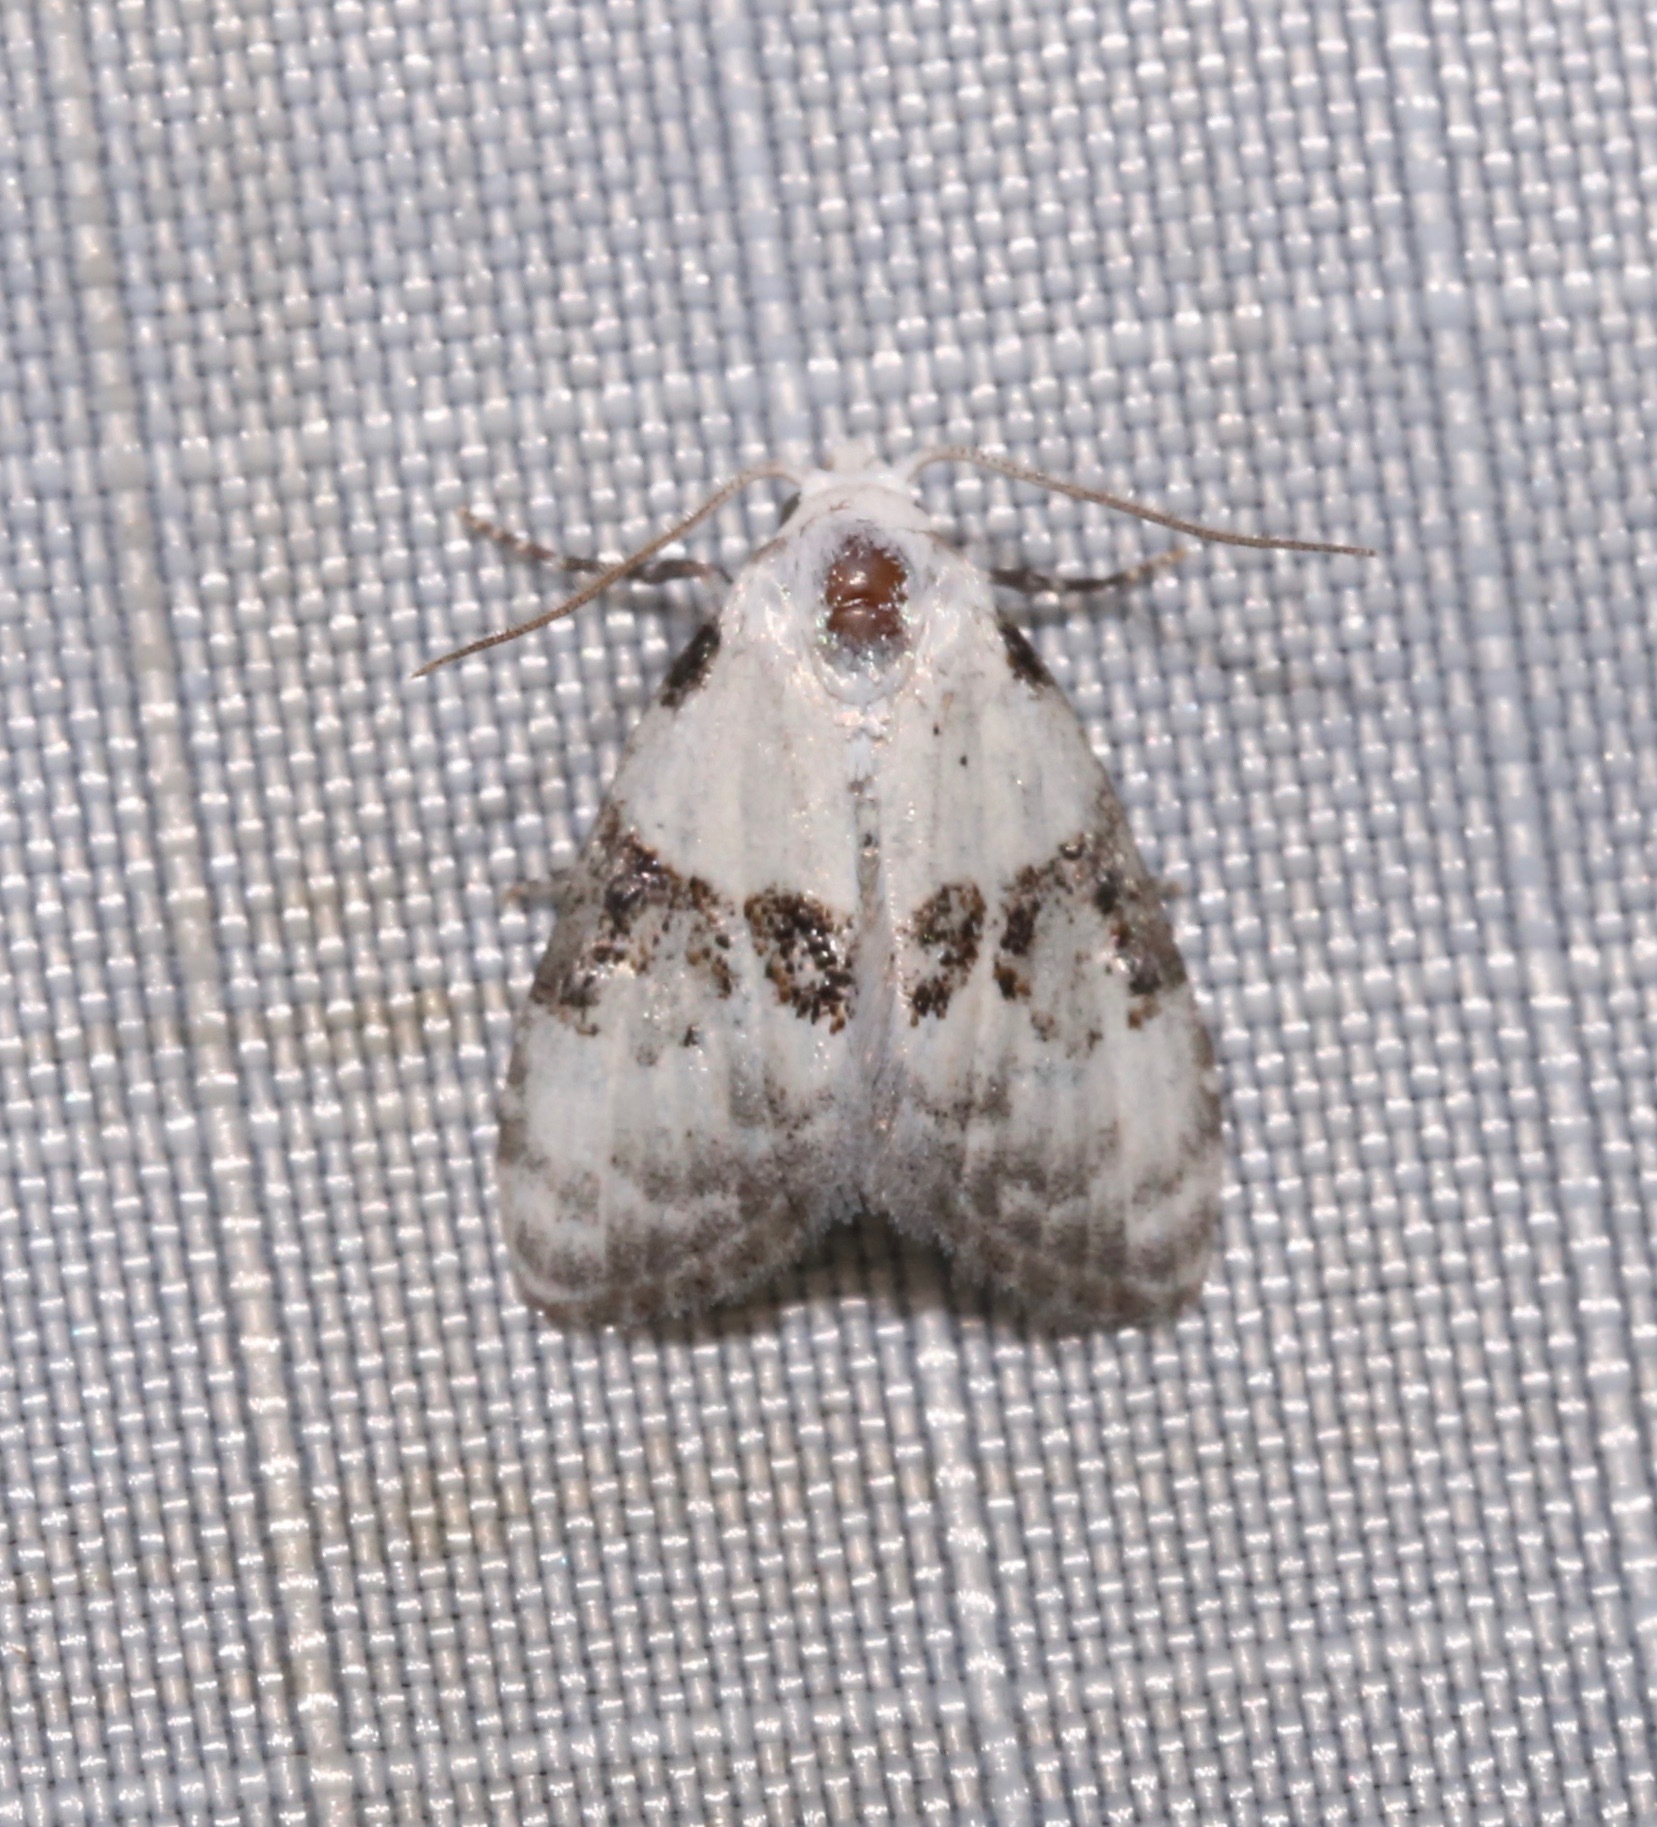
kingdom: Animalia
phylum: Arthropoda
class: Insecta
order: Lepidoptera
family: Nolidae
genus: Nola
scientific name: Nola pustulata
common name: Sharp-blotched nola moth
